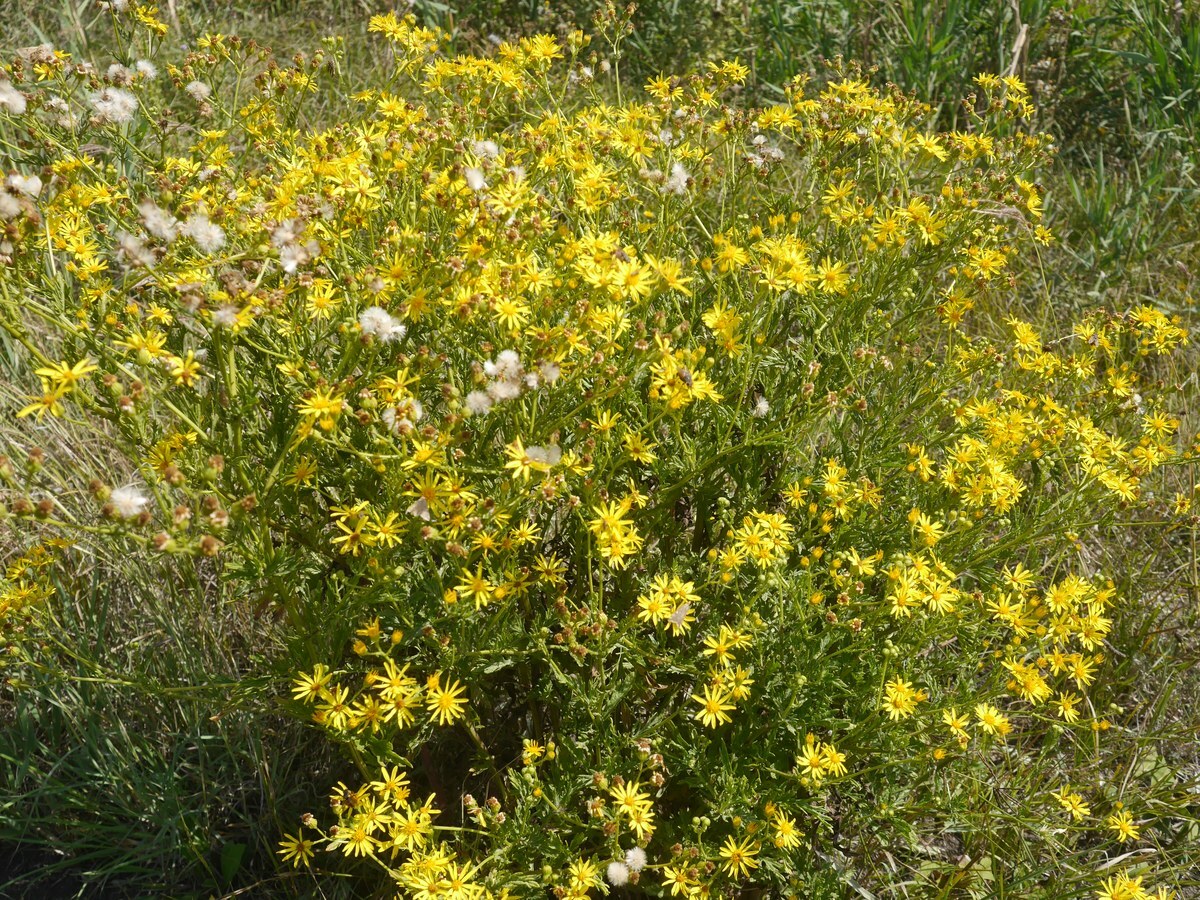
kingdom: Plantae
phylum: Tracheophyta
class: Magnoliopsida
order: Asterales
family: Asteraceae
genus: Jacobaea
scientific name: Jacobaea erucifolia
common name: Hoary ragwort
